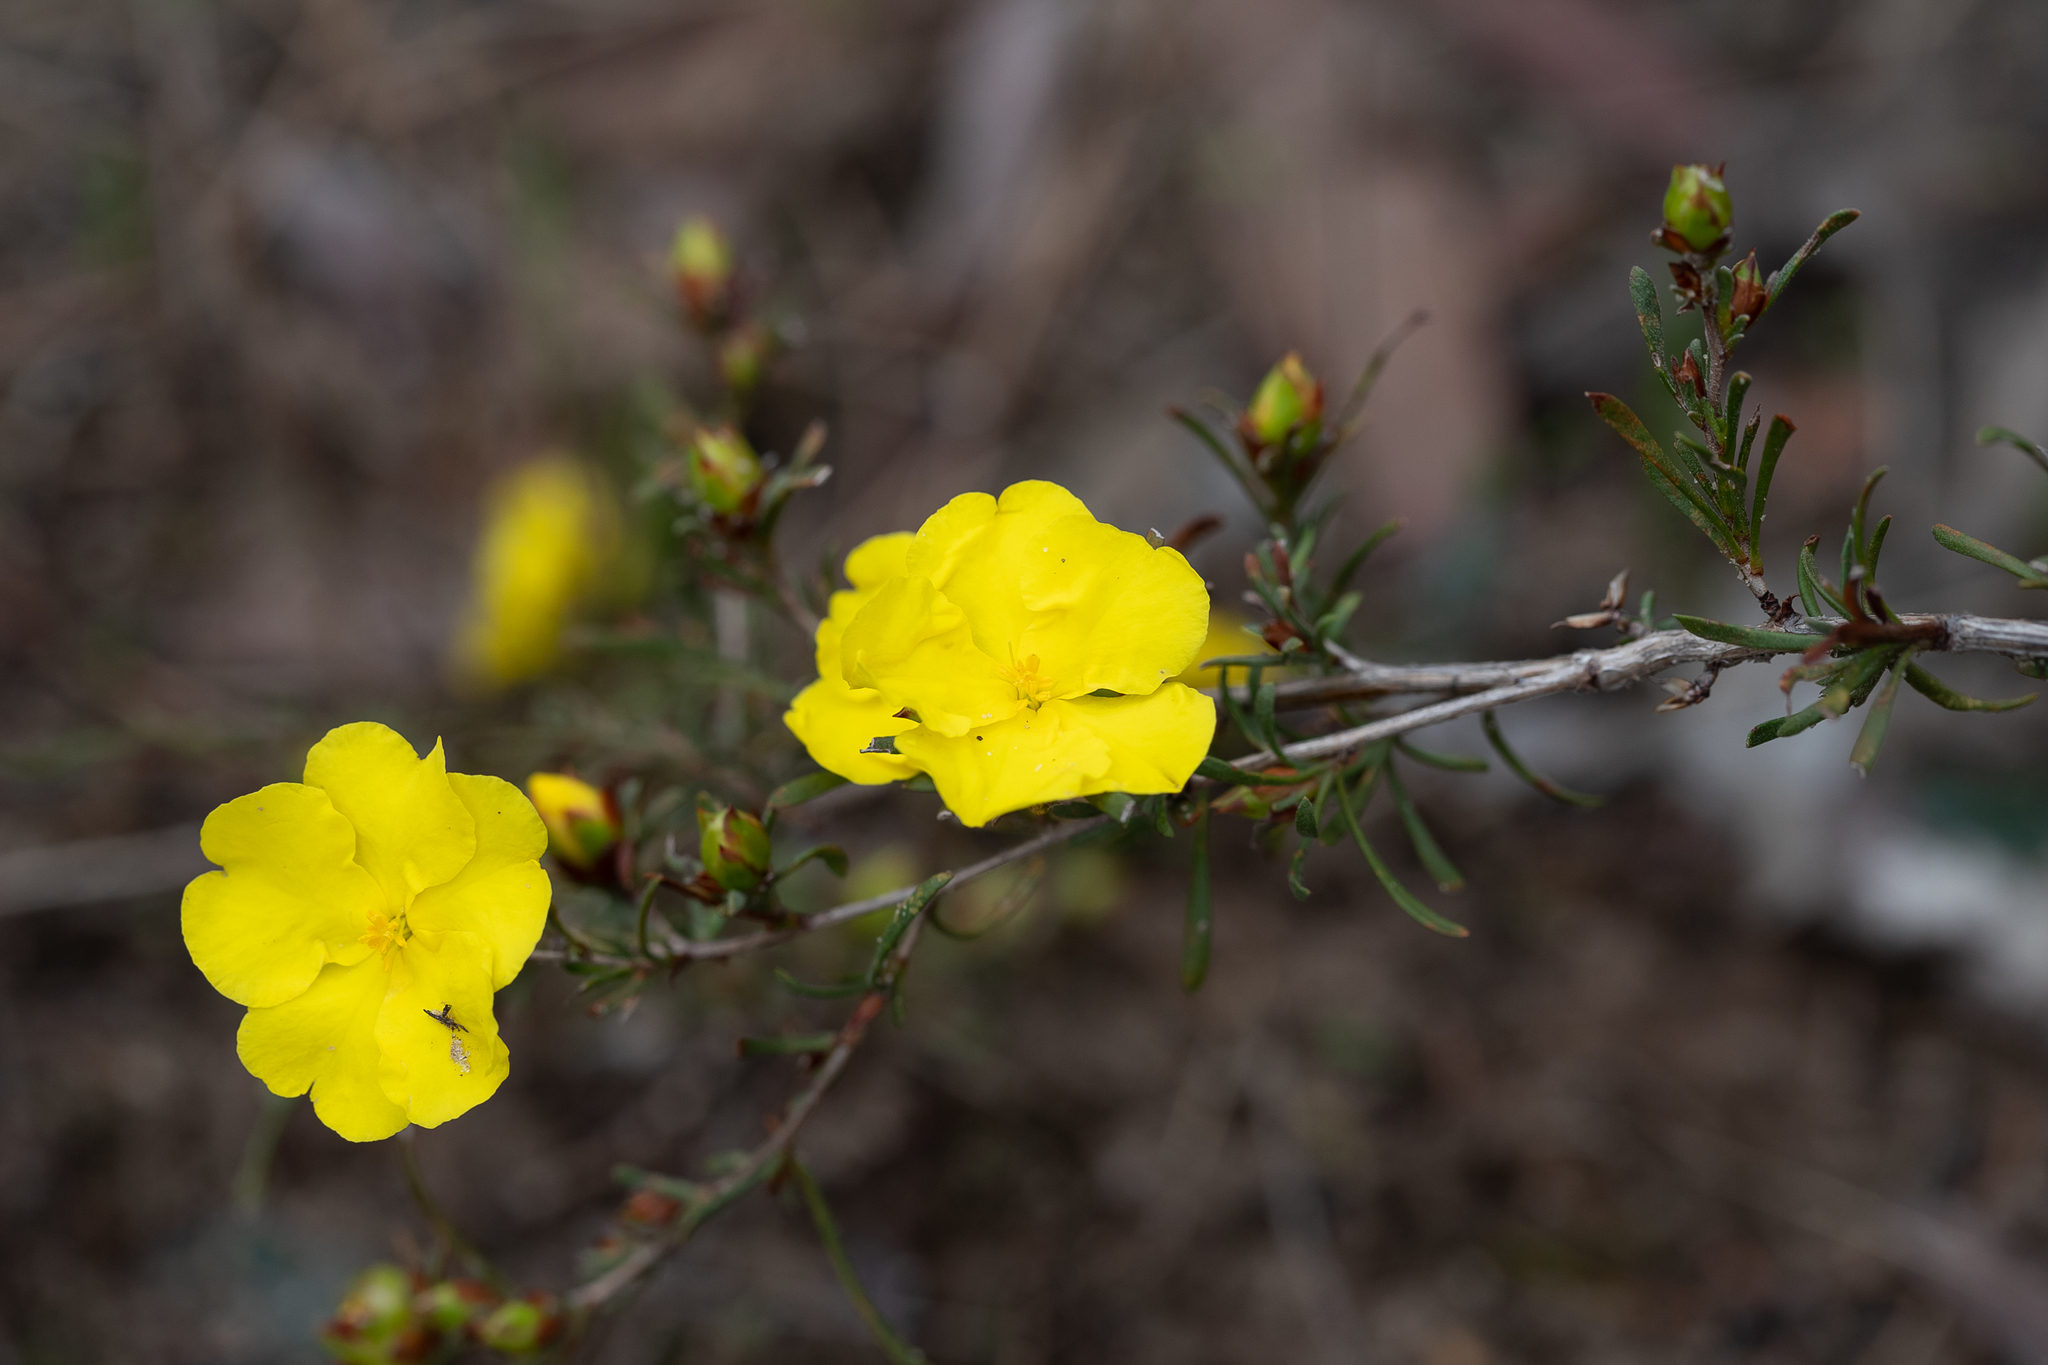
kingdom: Plantae
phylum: Tracheophyta
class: Magnoliopsida
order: Dilleniales
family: Dilleniaceae
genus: Hibbertia
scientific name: Hibbertia virgata
